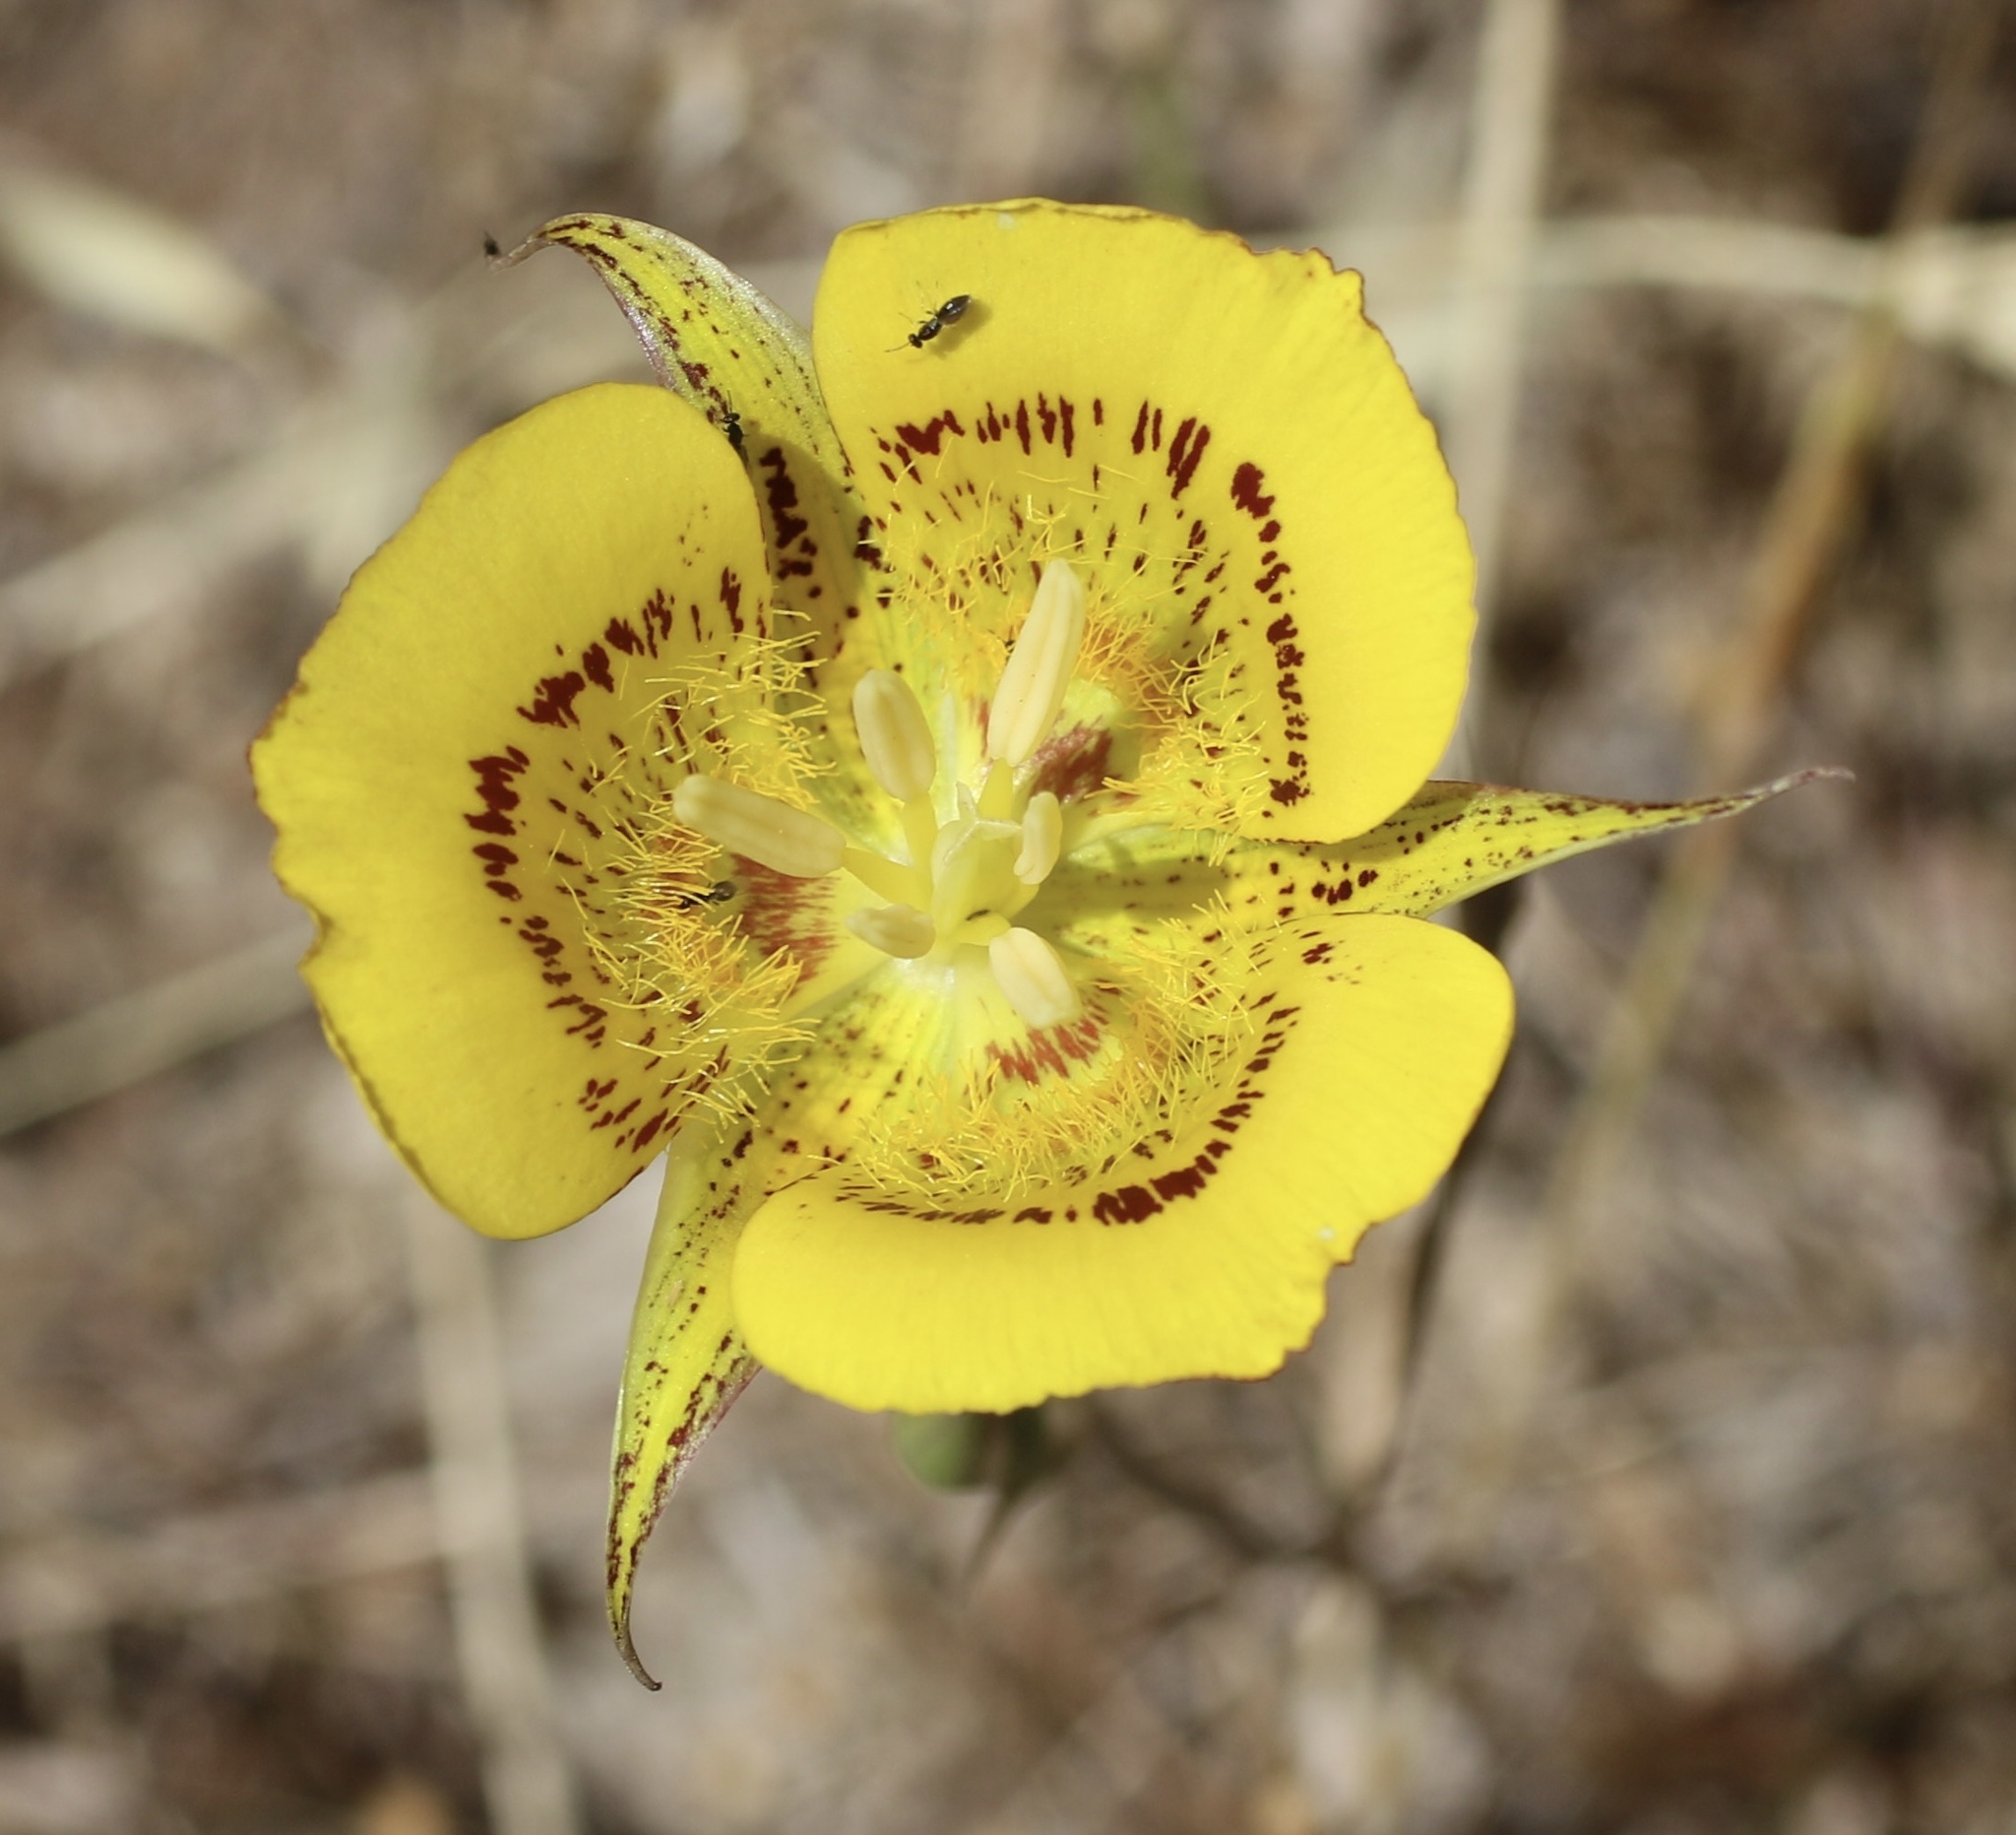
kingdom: Plantae
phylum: Tracheophyta
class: Liliopsida
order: Liliales
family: Liliaceae
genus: Calochortus
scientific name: Calochortus luteus
